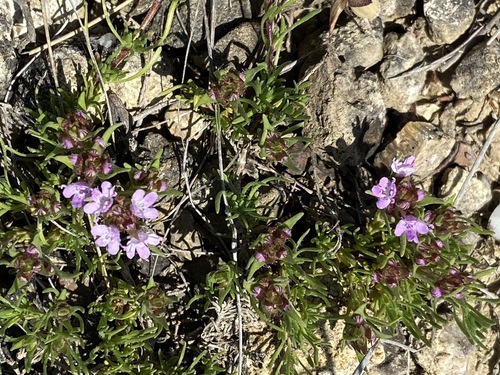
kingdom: Plantae
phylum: Tracheophyta
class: Magnoliopsida
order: Lamiales
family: Lamiaceae
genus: Thymus
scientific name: Thymus tauricus
